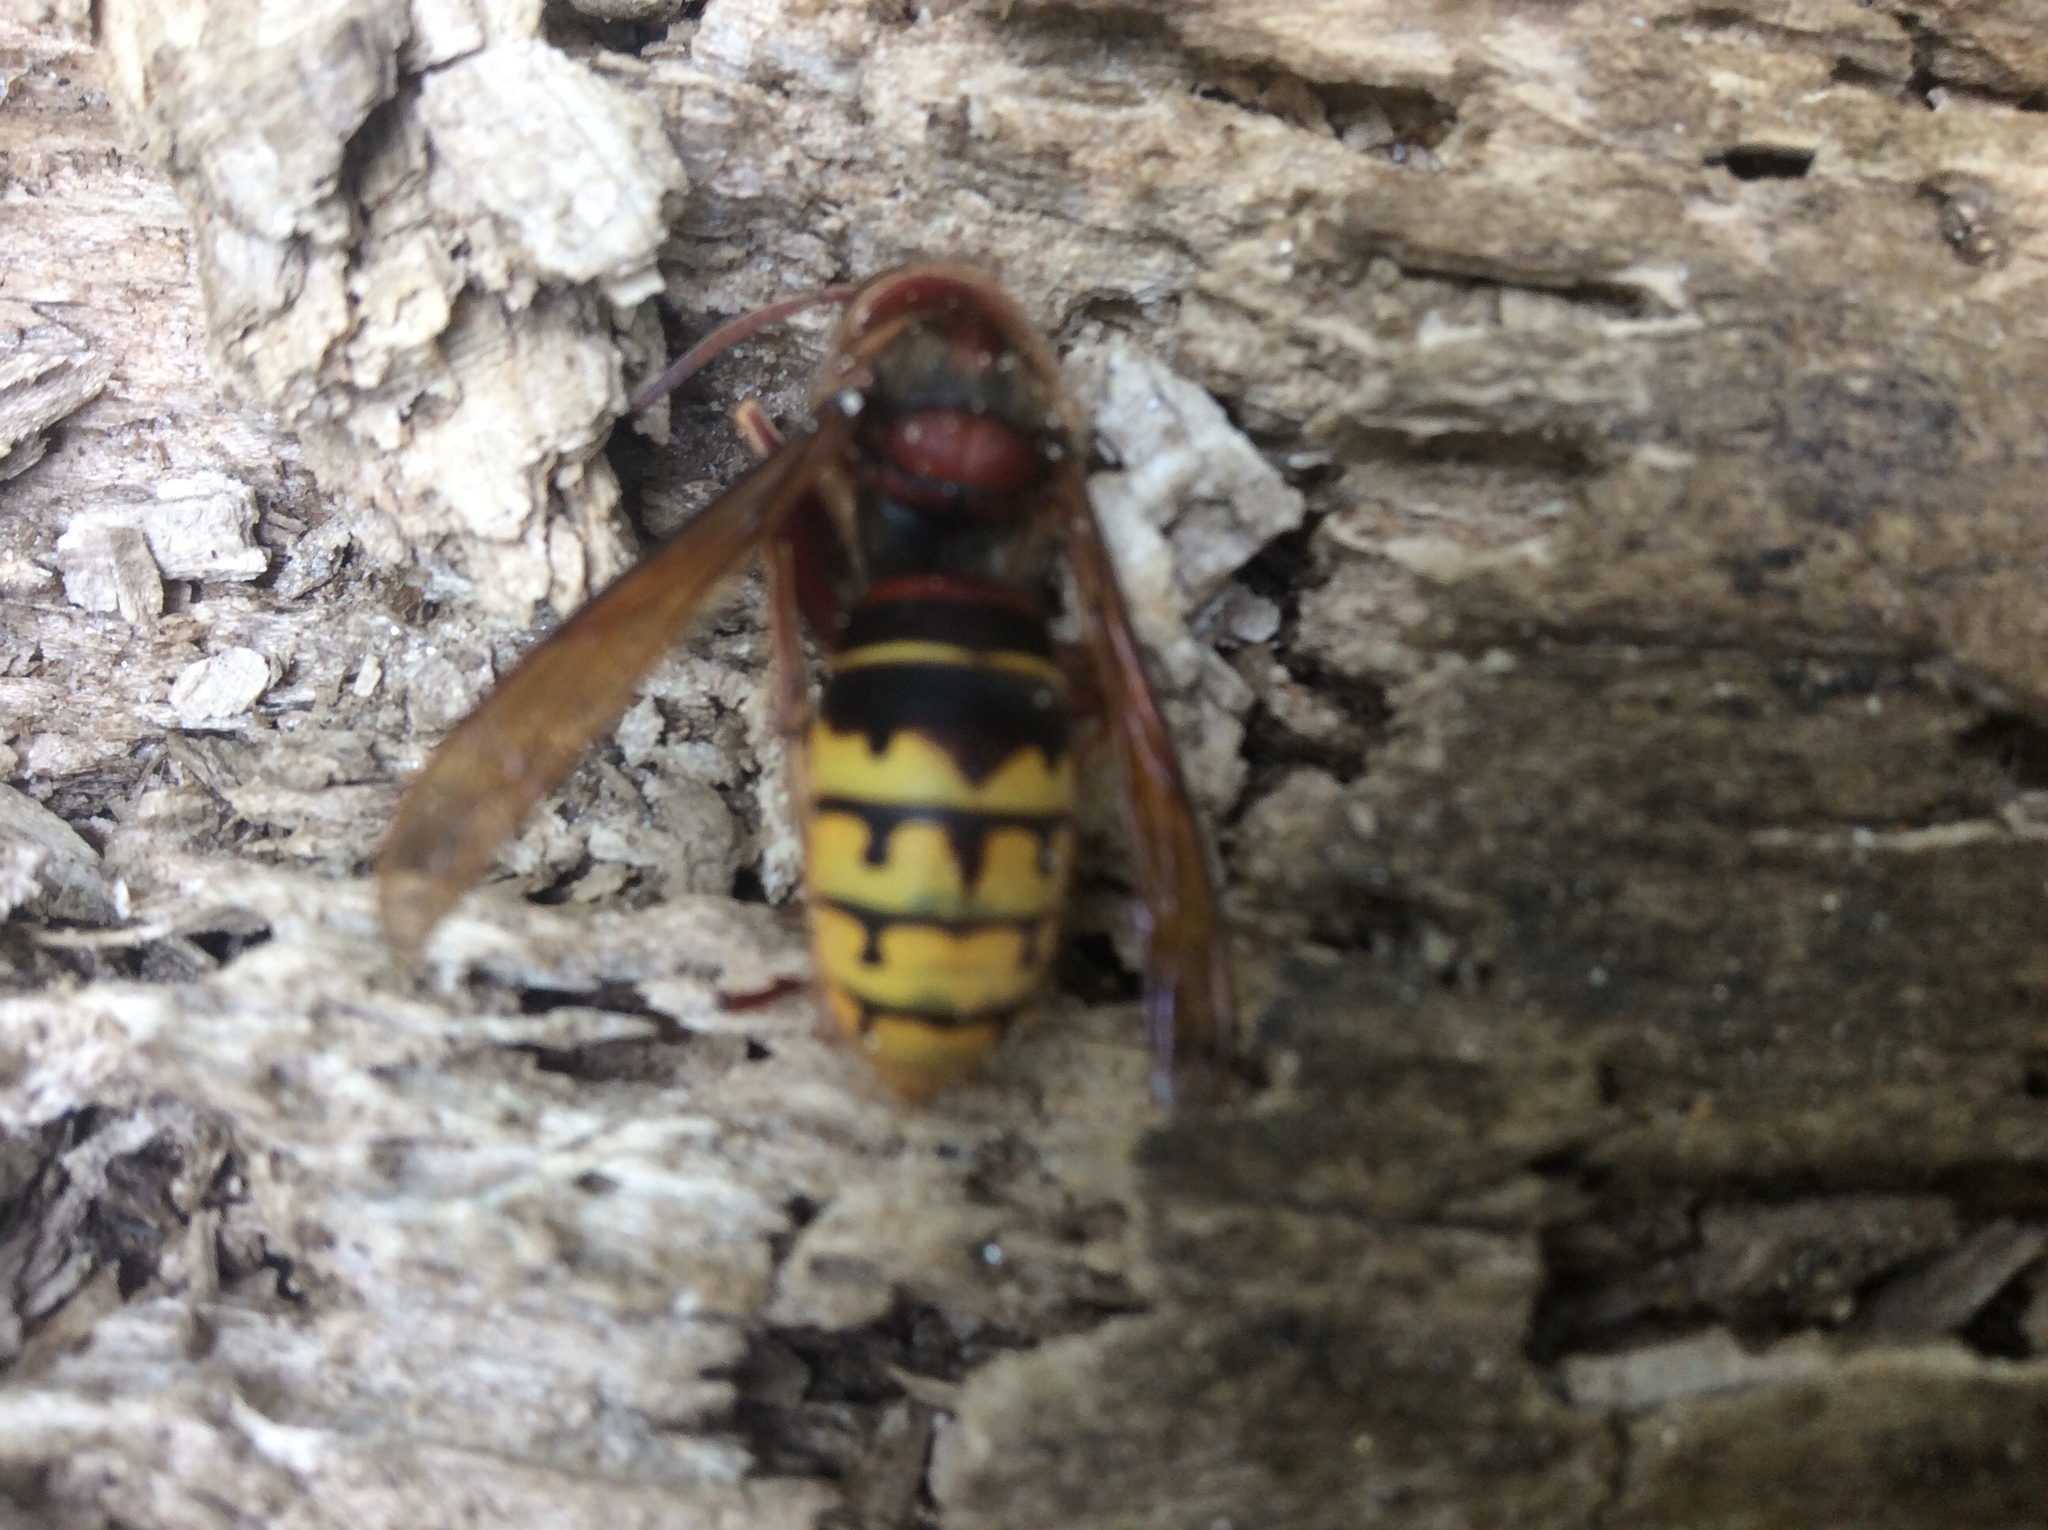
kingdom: Animalia
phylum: Arthropoda
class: Insecta
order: Hymenoptera
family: Vespidae
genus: Vespa
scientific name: Vespa crabro
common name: Hornet
